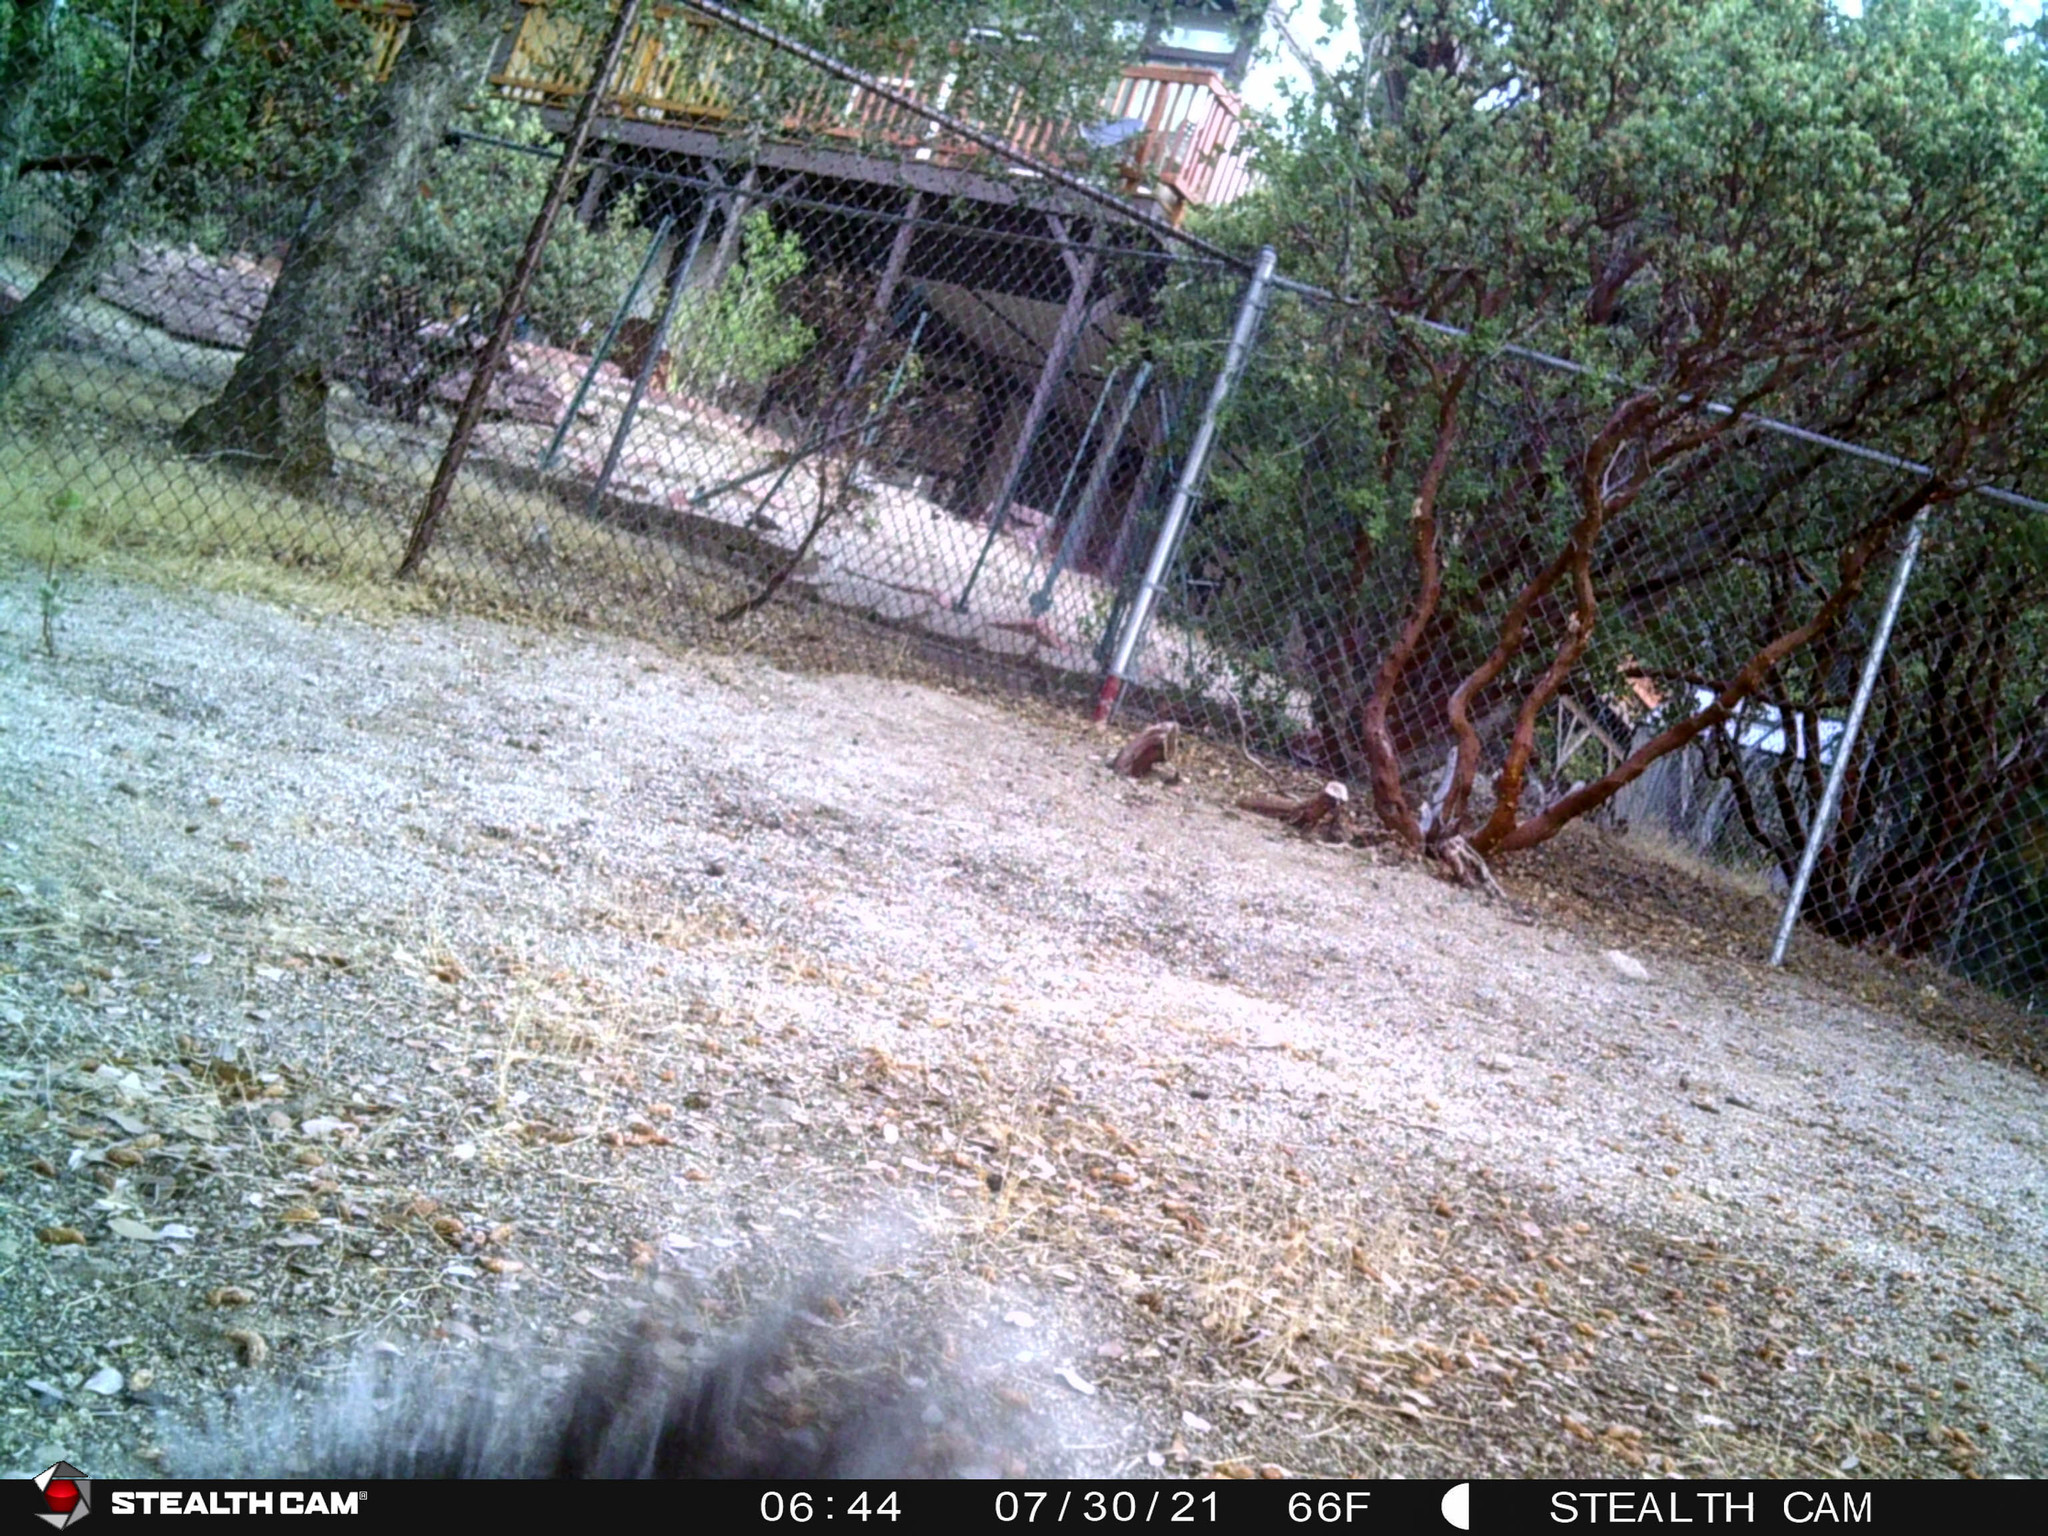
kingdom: Animalia
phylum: Chordata
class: Mammalia
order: Rodentia
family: Sciuridae
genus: Sciurus
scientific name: Sciurus griseus
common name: Western gray squirrel
